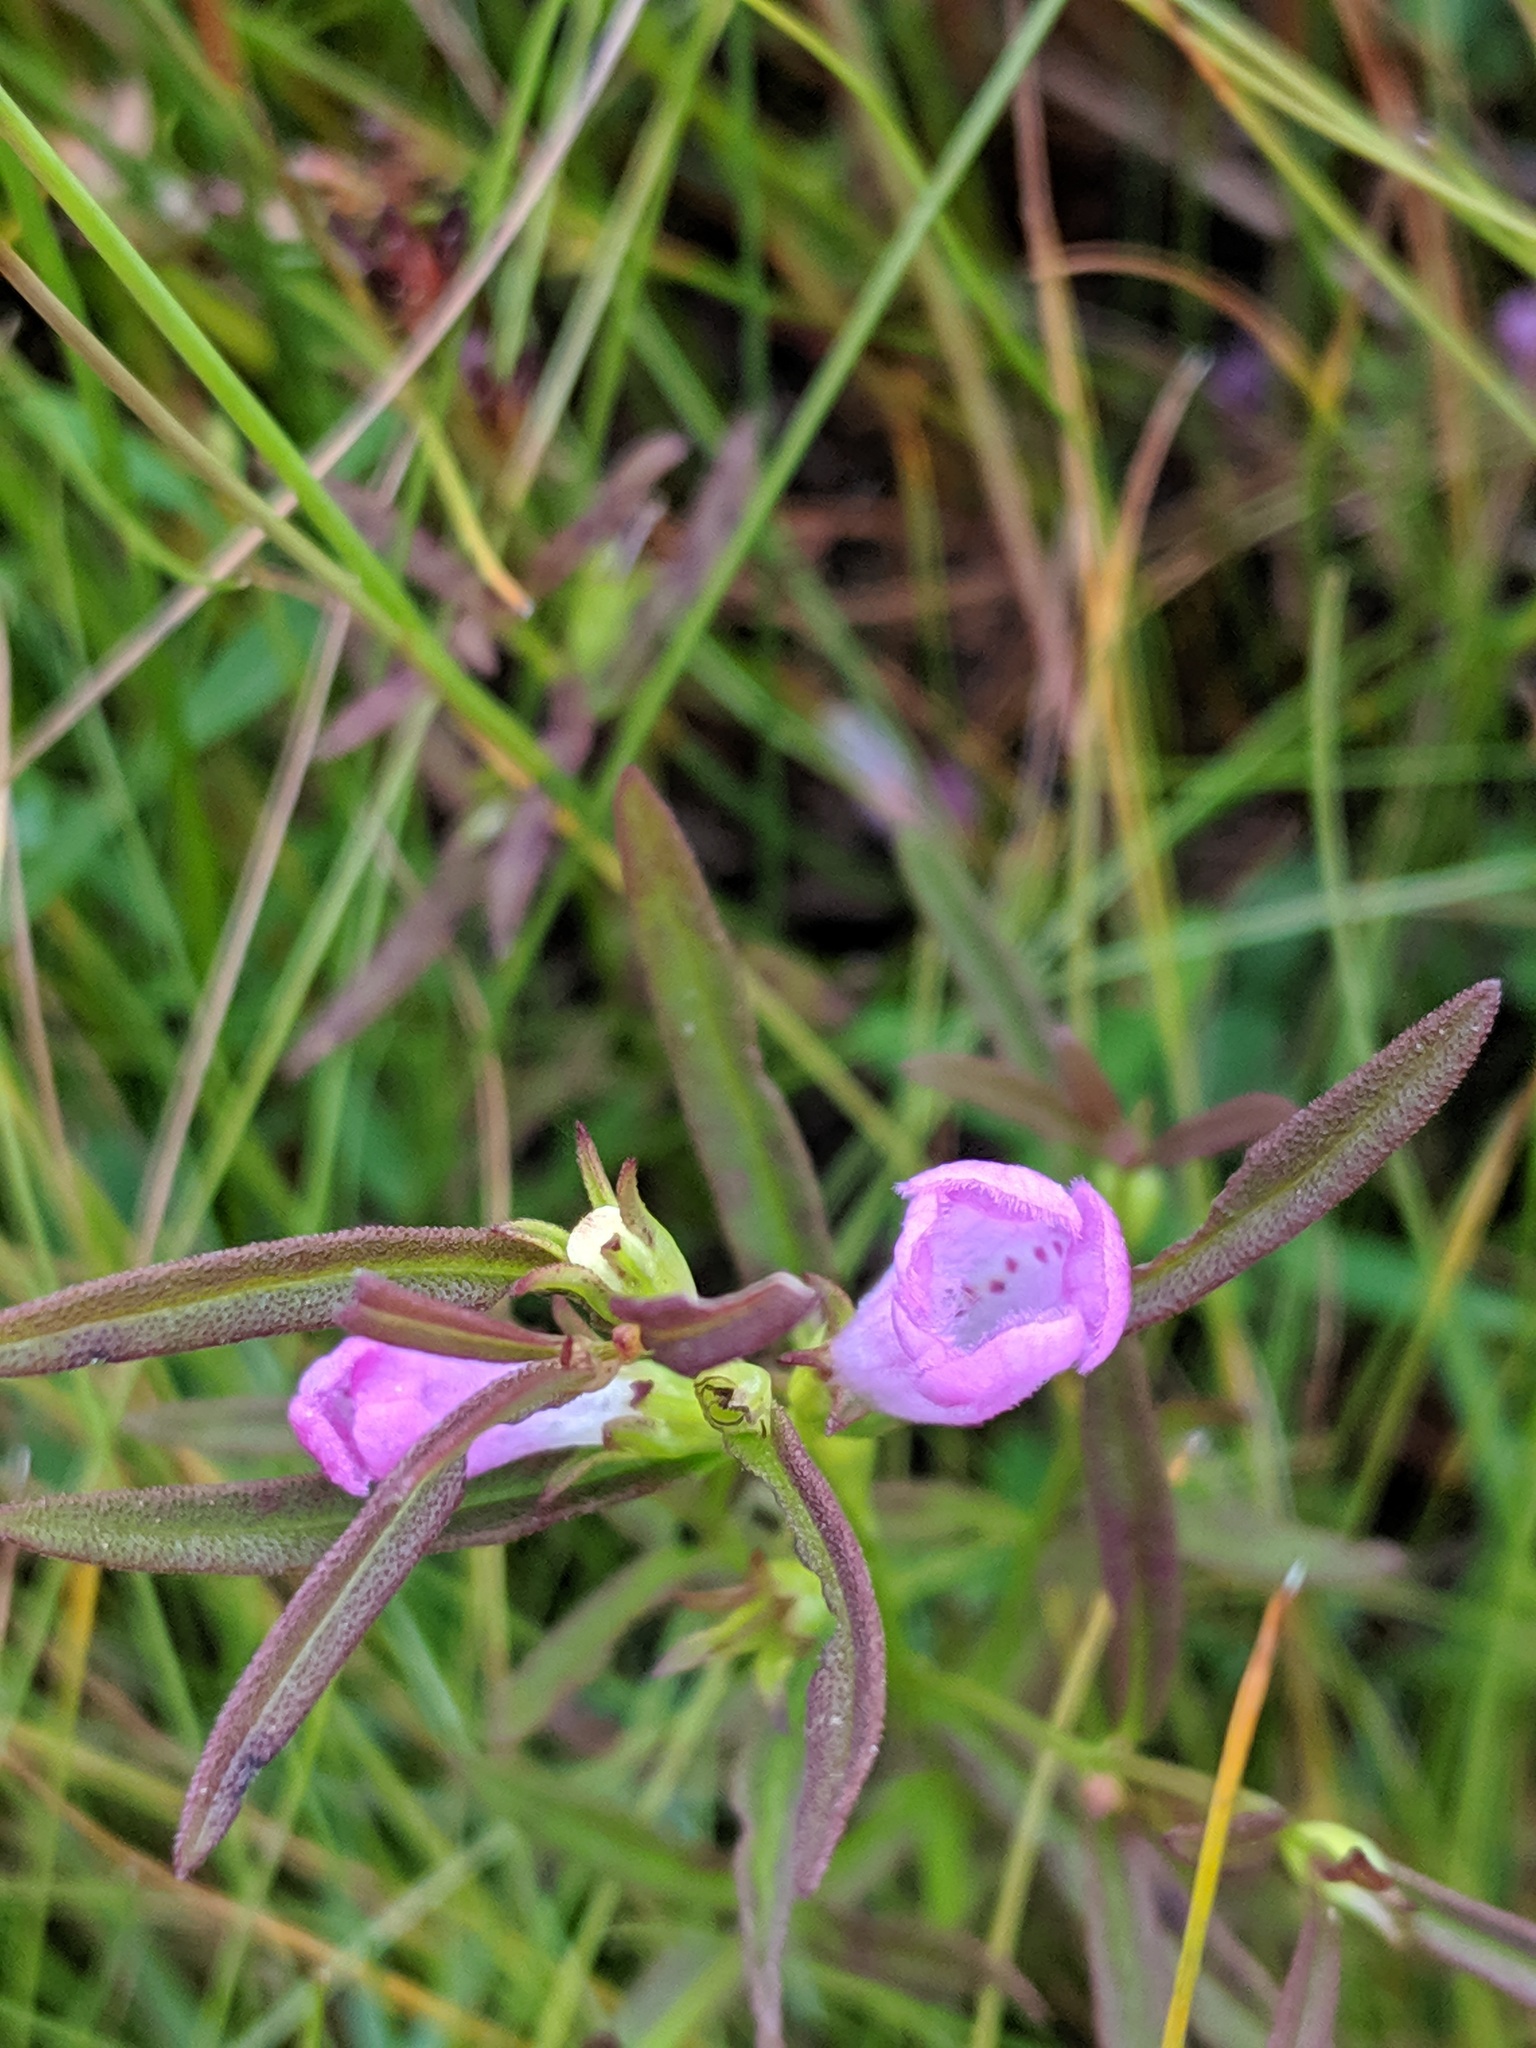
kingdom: Plantae
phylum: Tracheophyta
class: Magnoliopsida
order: Lamiales
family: Orobanchaceae
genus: Agalinis
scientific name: Agalinis neoscotica
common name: Middleton false foxglove
